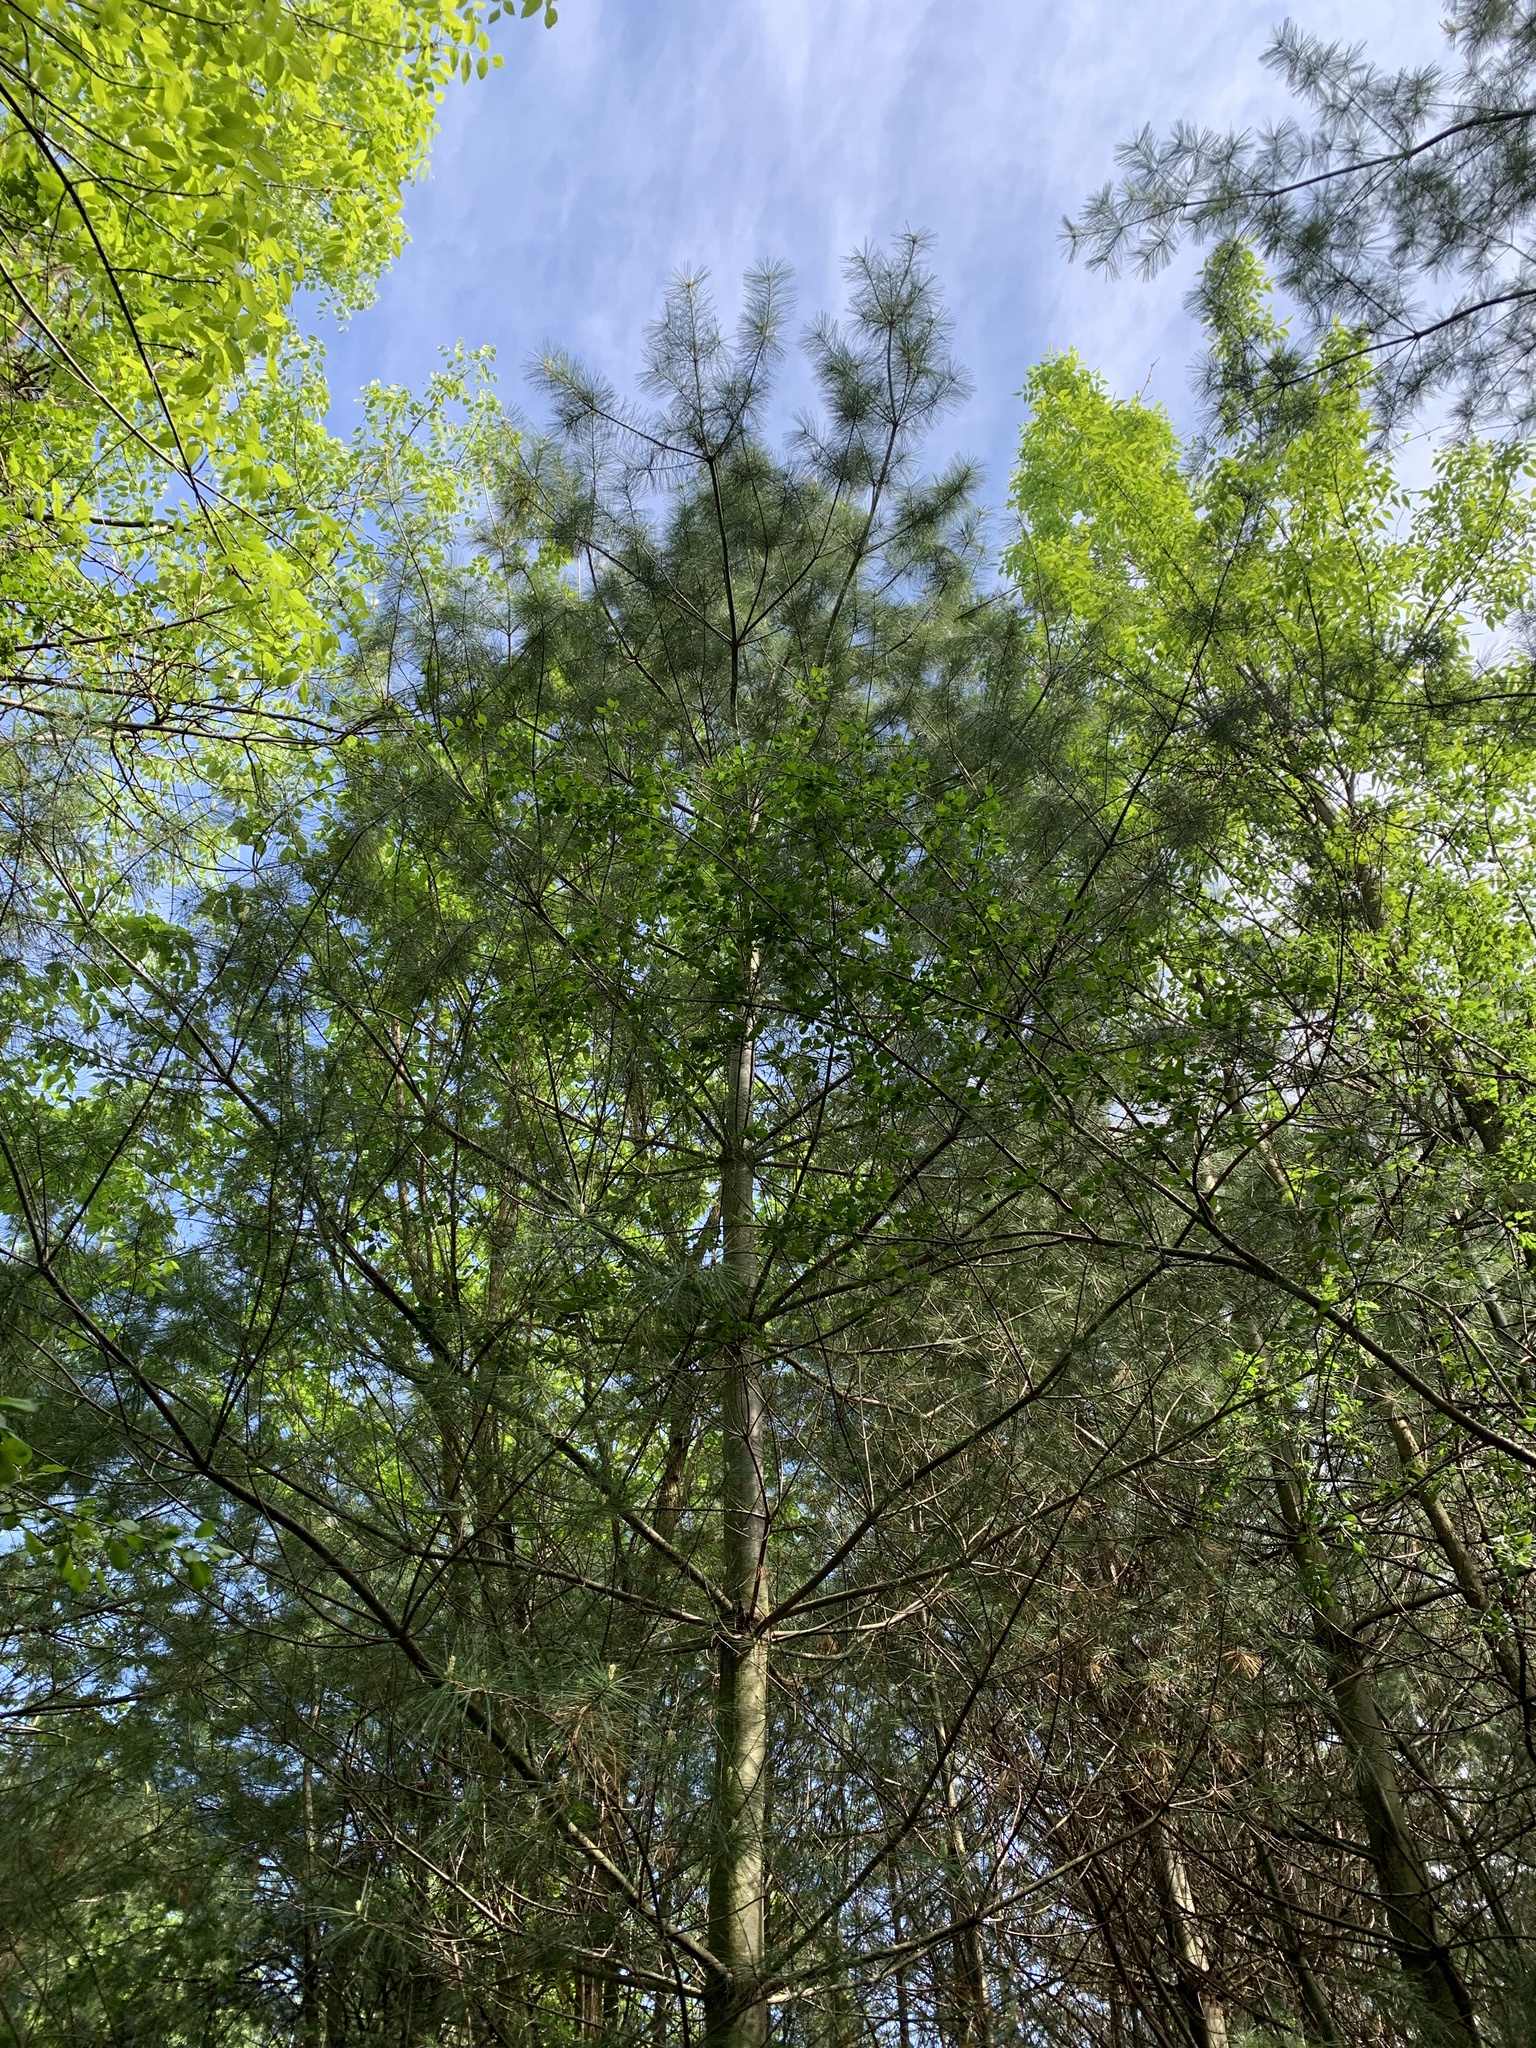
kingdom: Plantae
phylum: Tracheophyta
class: Pinopsida
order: Pinales
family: Pinaceae
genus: Pinus
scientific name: Pinus strobus
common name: Weymouth pine
